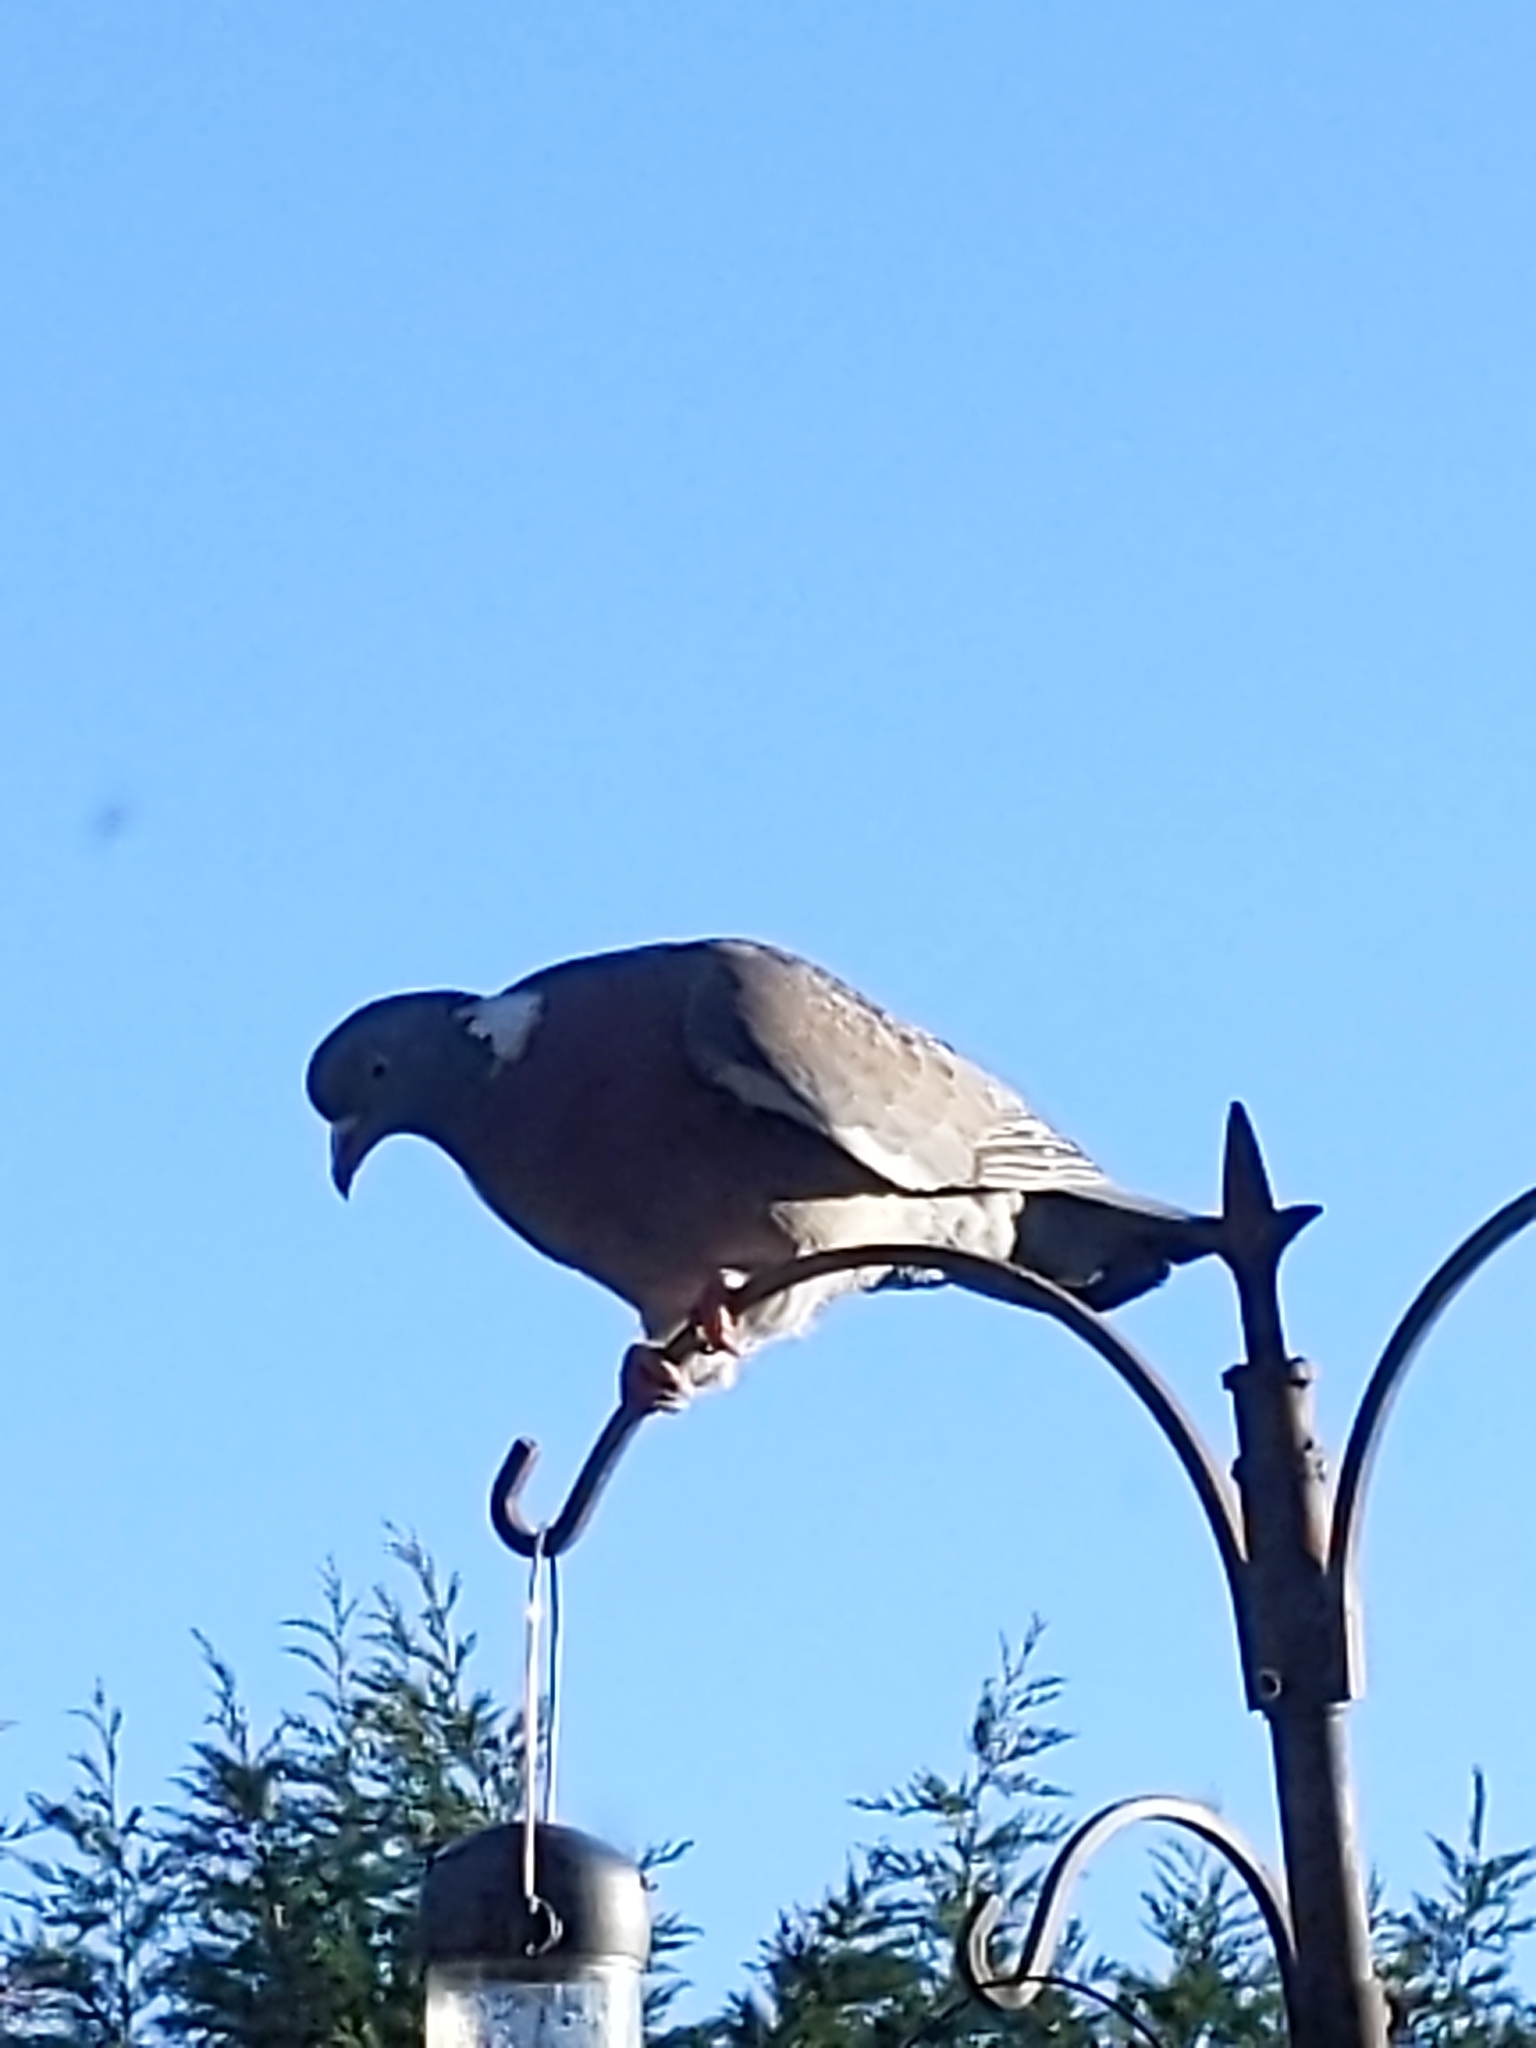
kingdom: Animalia
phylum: Chordata
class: Aves
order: Columbiformes
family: Columbidae
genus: Columba
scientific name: Columba palumbus
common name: Common wood pigeon
